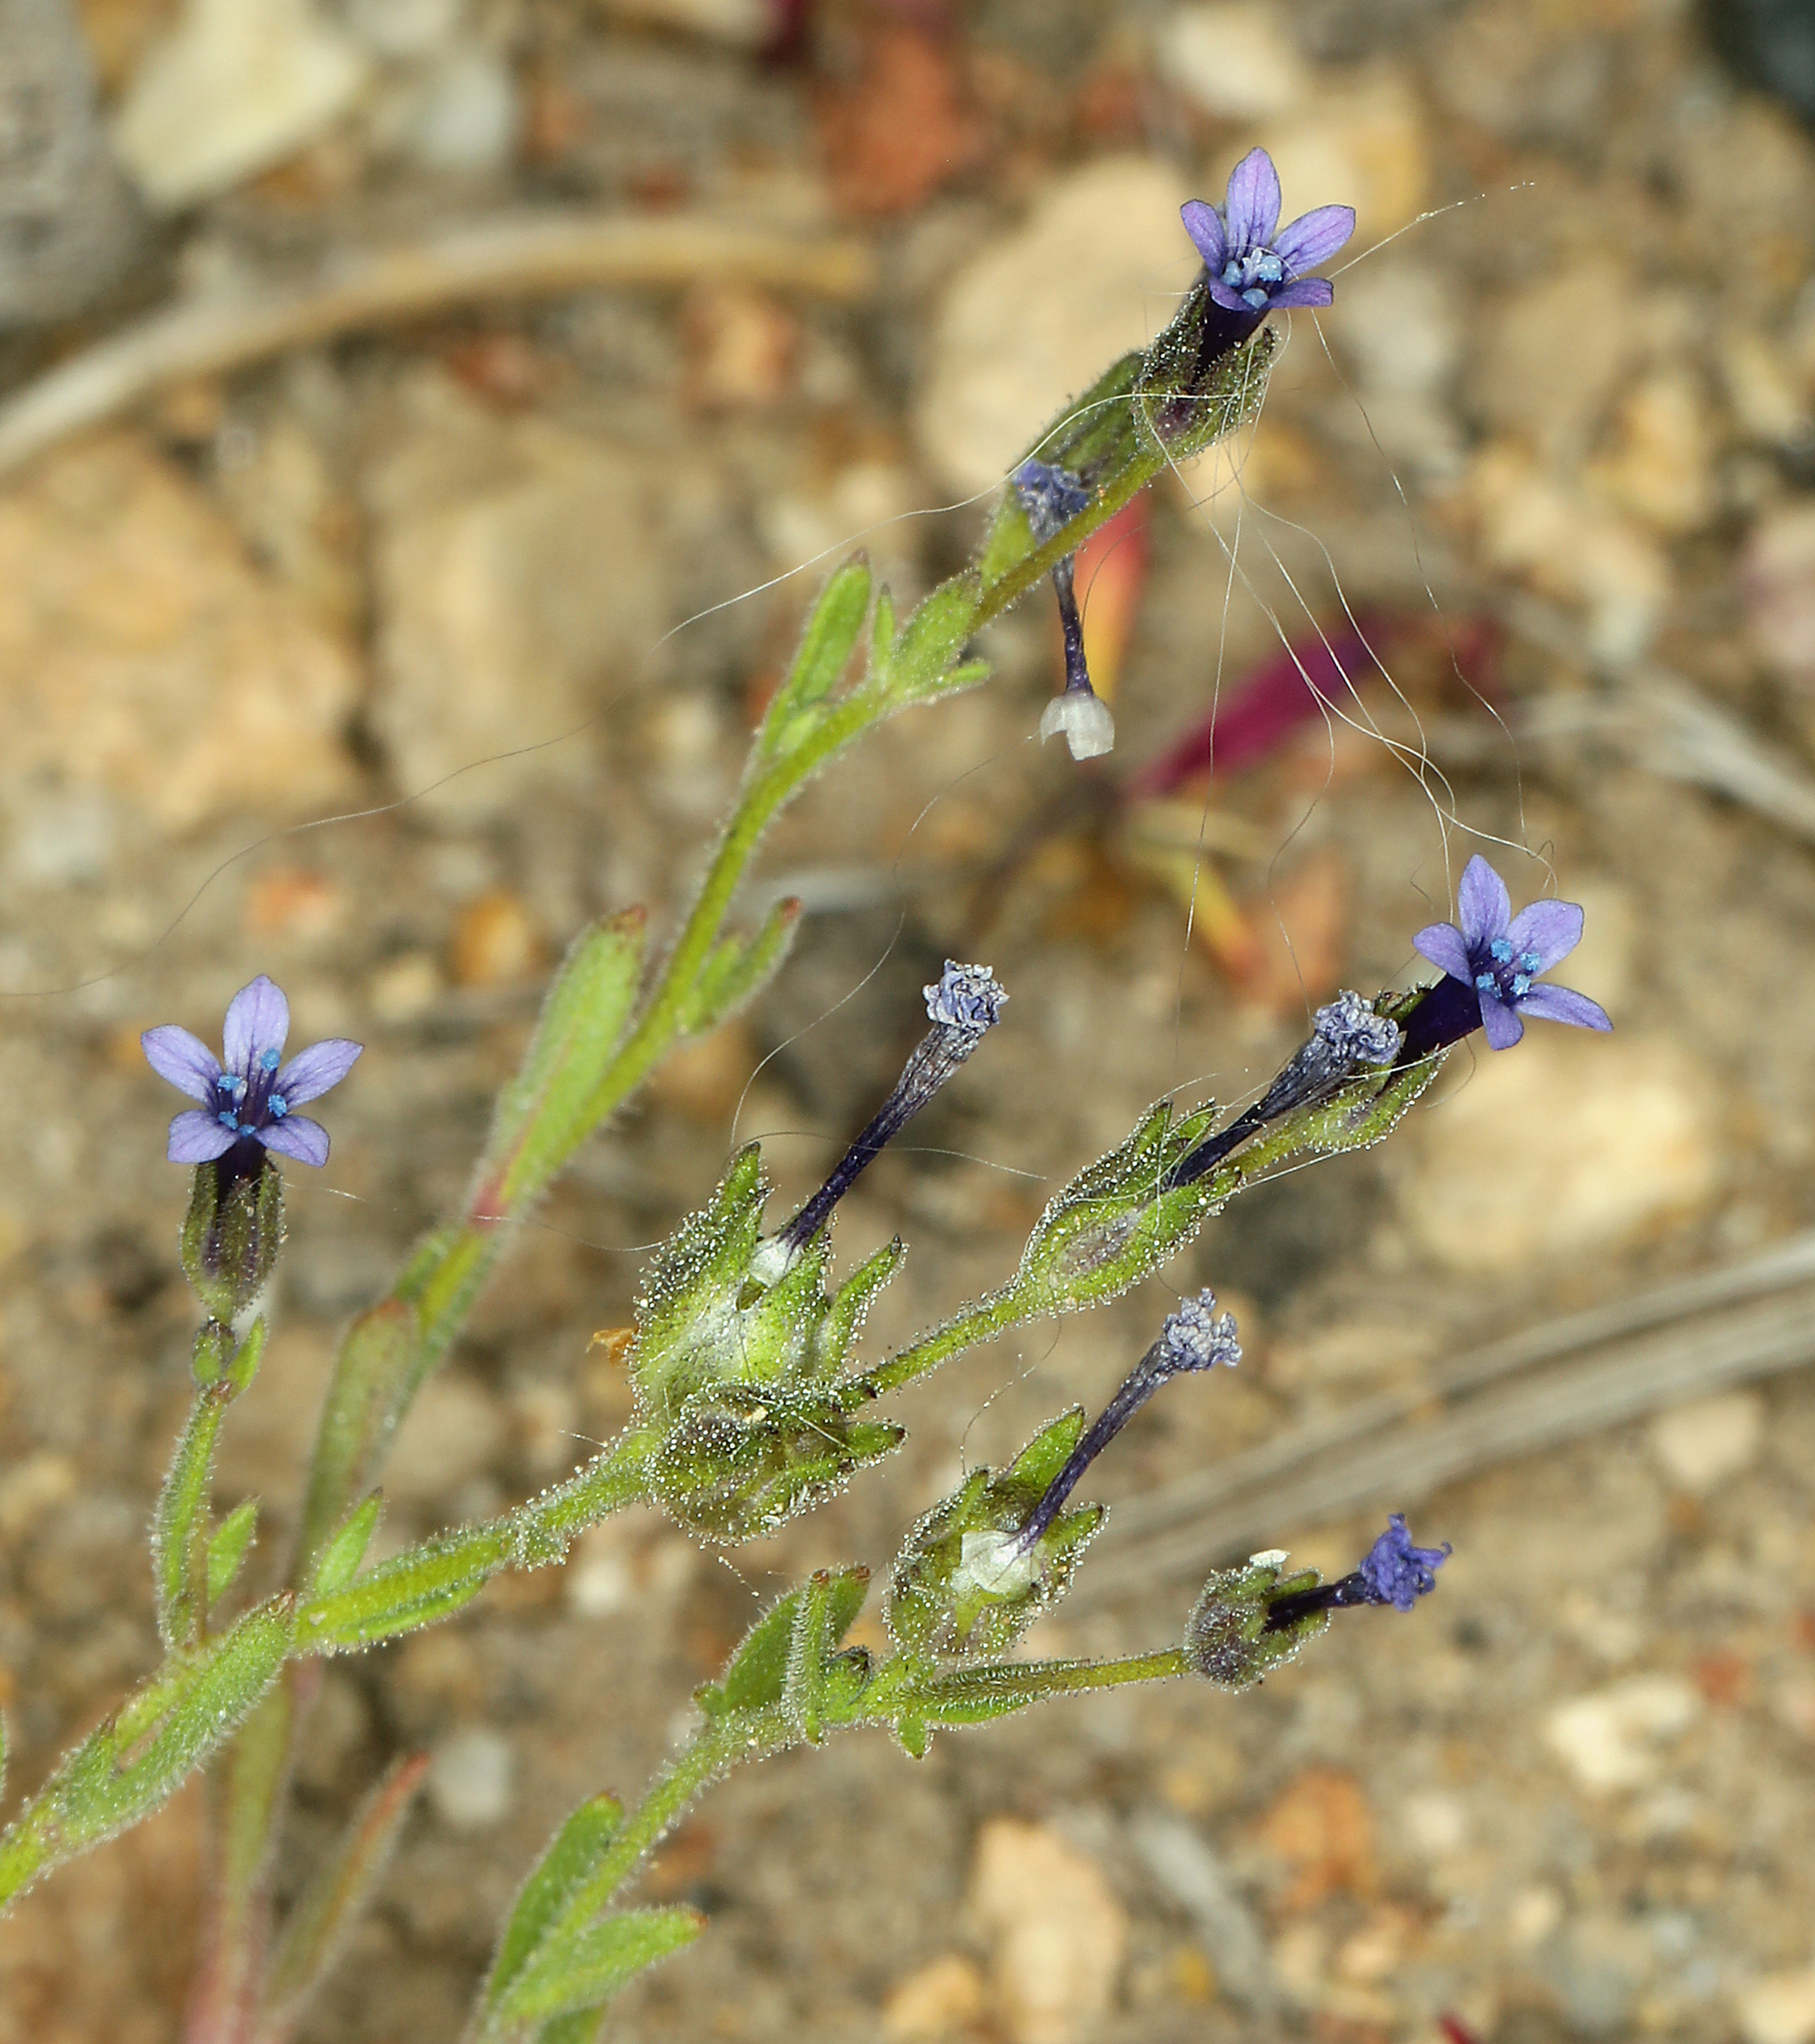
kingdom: Plantae
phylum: Tracheophyta
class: Magnoliopsida
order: Ericales
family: Polemoniaceae
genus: Allophyllum
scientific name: Allophyllum gilioides
